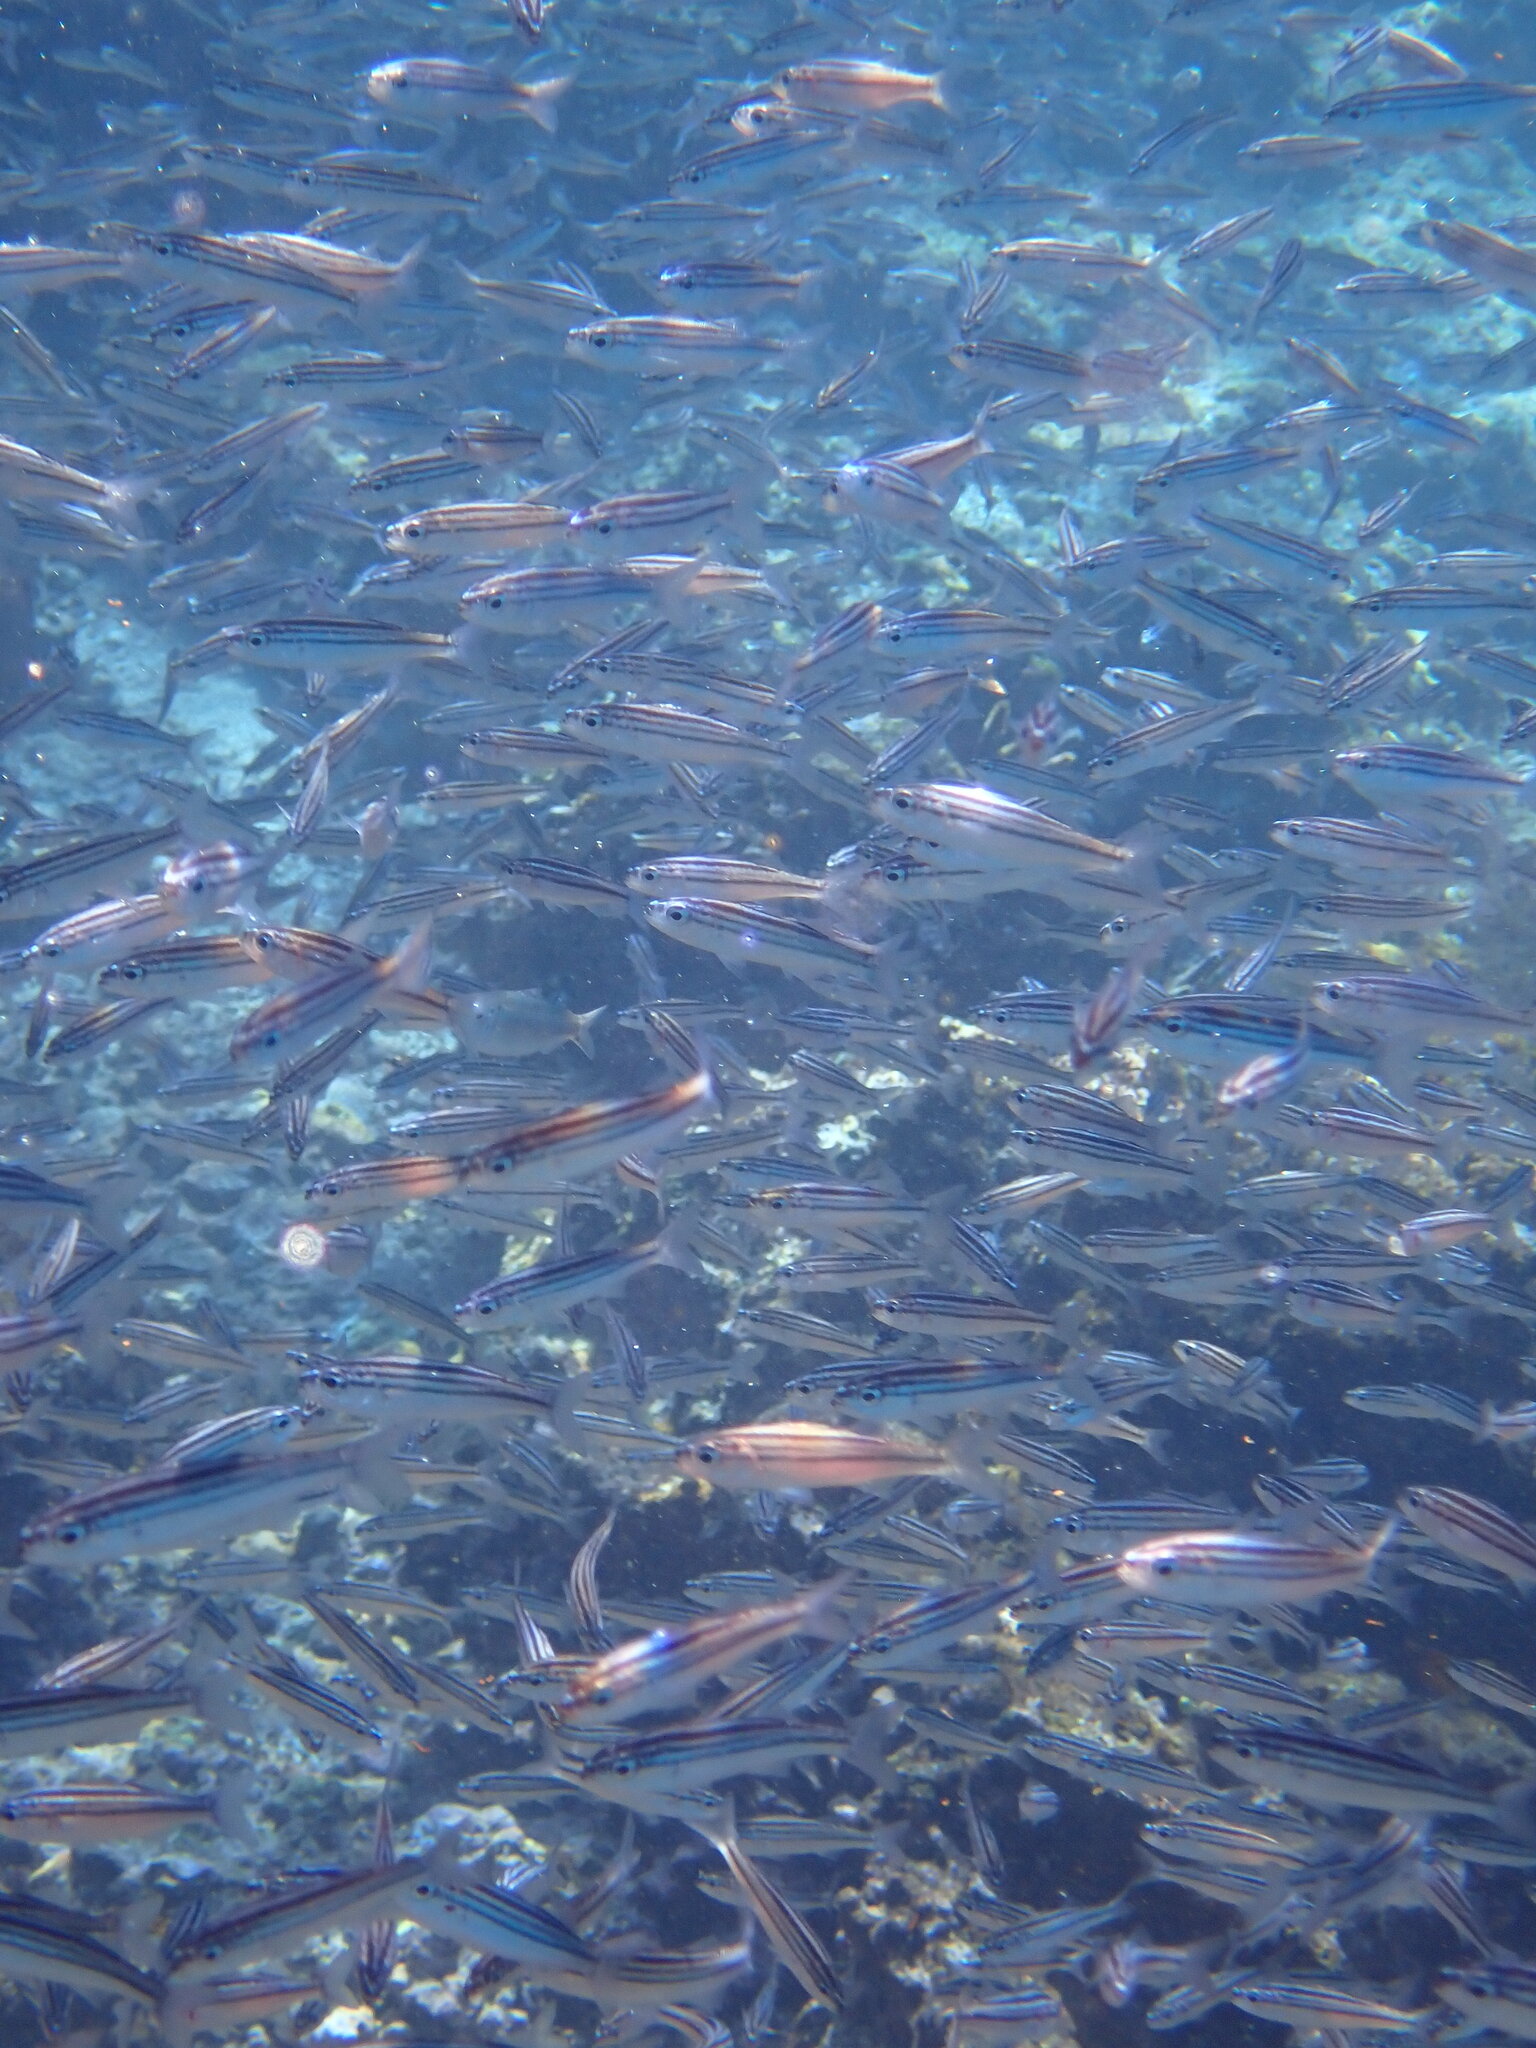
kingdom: Animalia
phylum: Chordata
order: Perciformes
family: Haemulidae
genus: Xenocys
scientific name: Xenocys jessiae
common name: Black-striped salema
